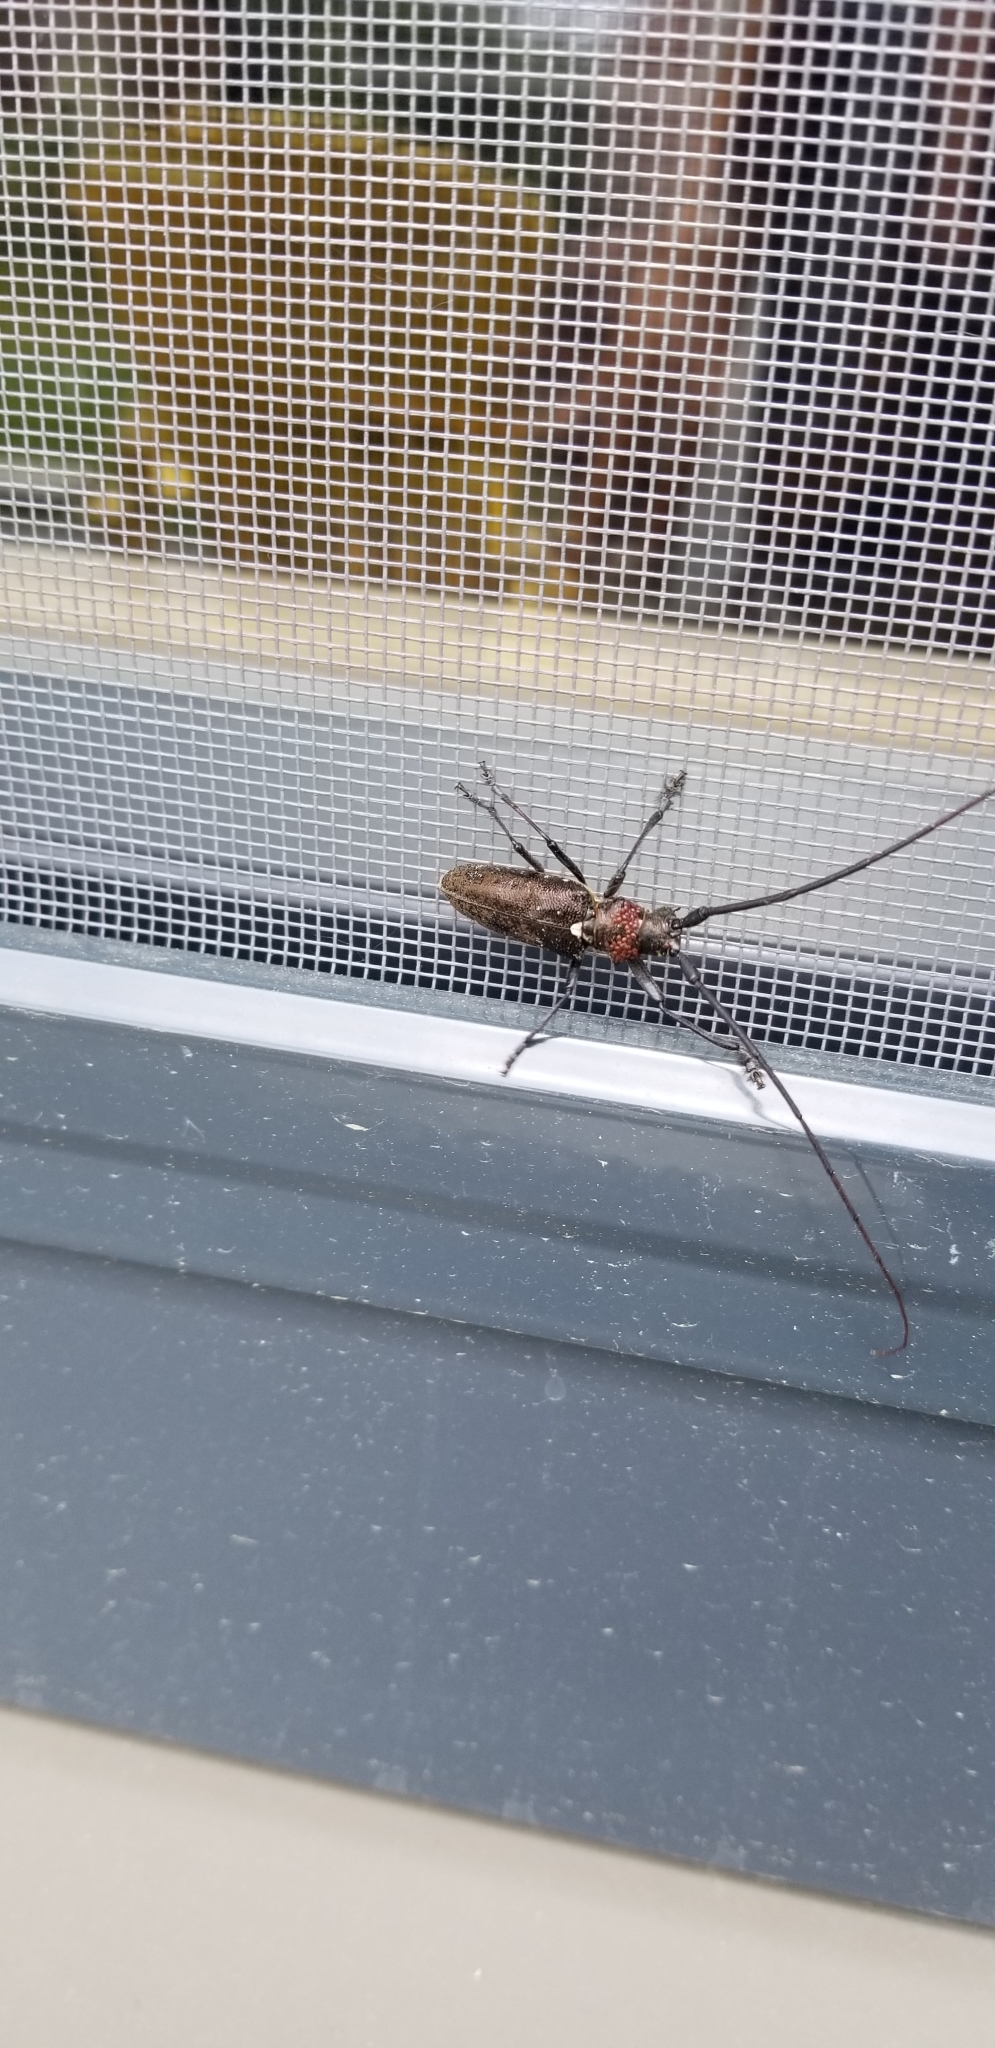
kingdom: Animalia
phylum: Arthropoda
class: Insecta
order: Coleoptera
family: Cerambycidae
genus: Monochamus
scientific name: Monochamus scutellatus
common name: White-spotted sawyer beetle
